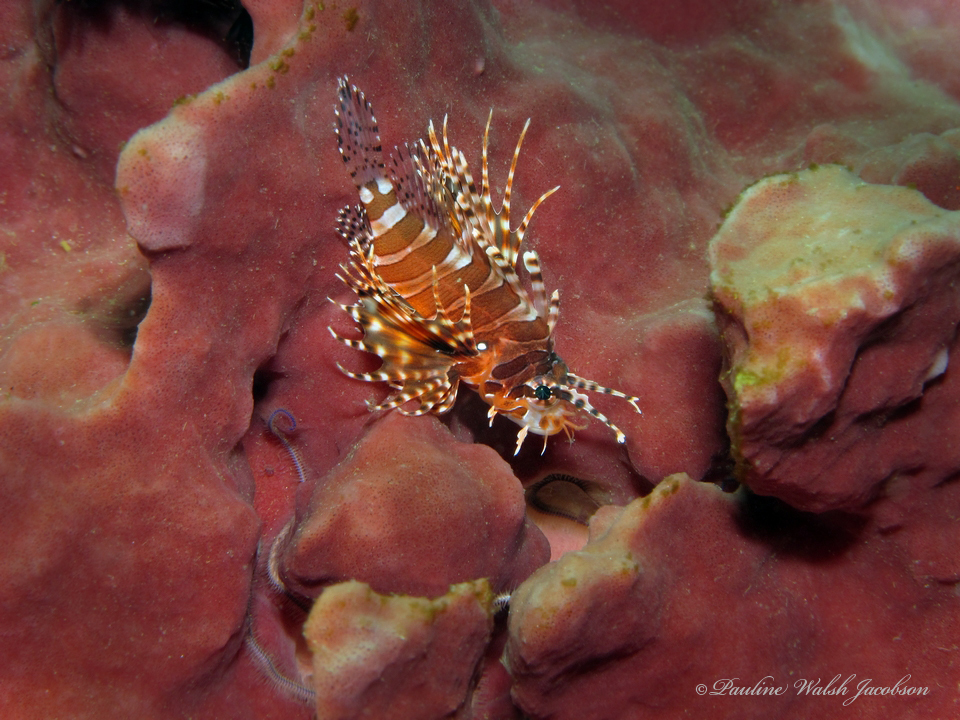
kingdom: Animalia
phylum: Chordata
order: Scorpaeniformes
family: Scorpaenidae
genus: Dendrochirus
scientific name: Dendrochirus zebra
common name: Zebra lionfish
